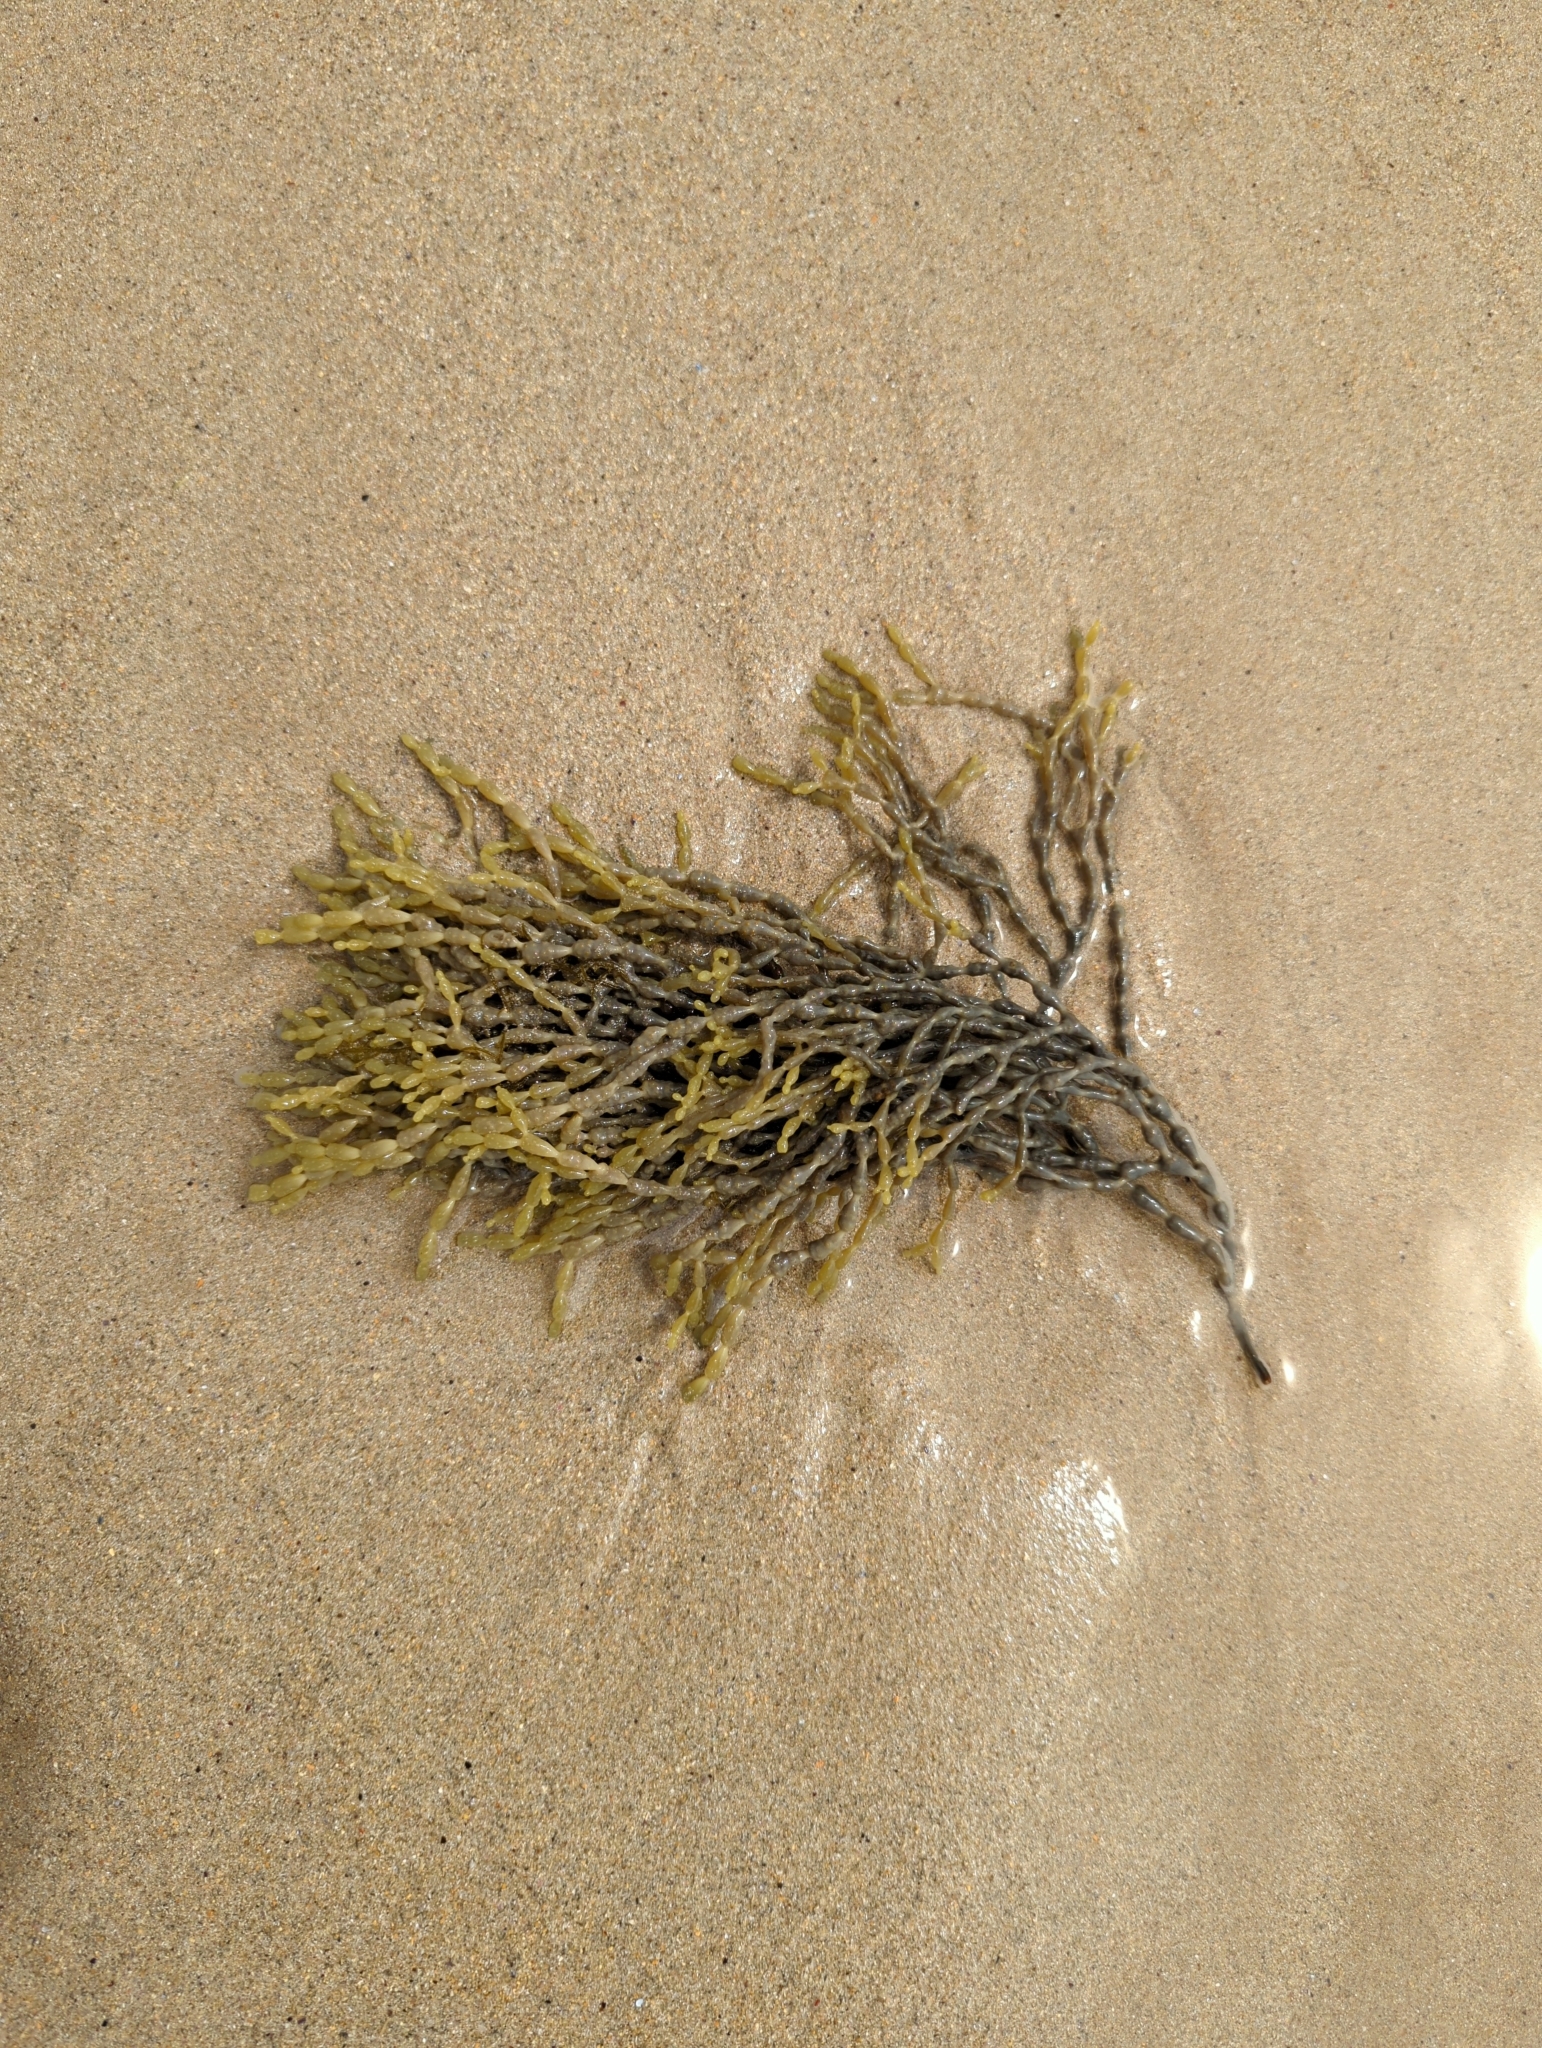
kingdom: Chromista
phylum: Ochrophyta
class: Phaeophyceae
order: Fucales
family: Hormosiraceae
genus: Hormosira
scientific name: Hormosira banksii
